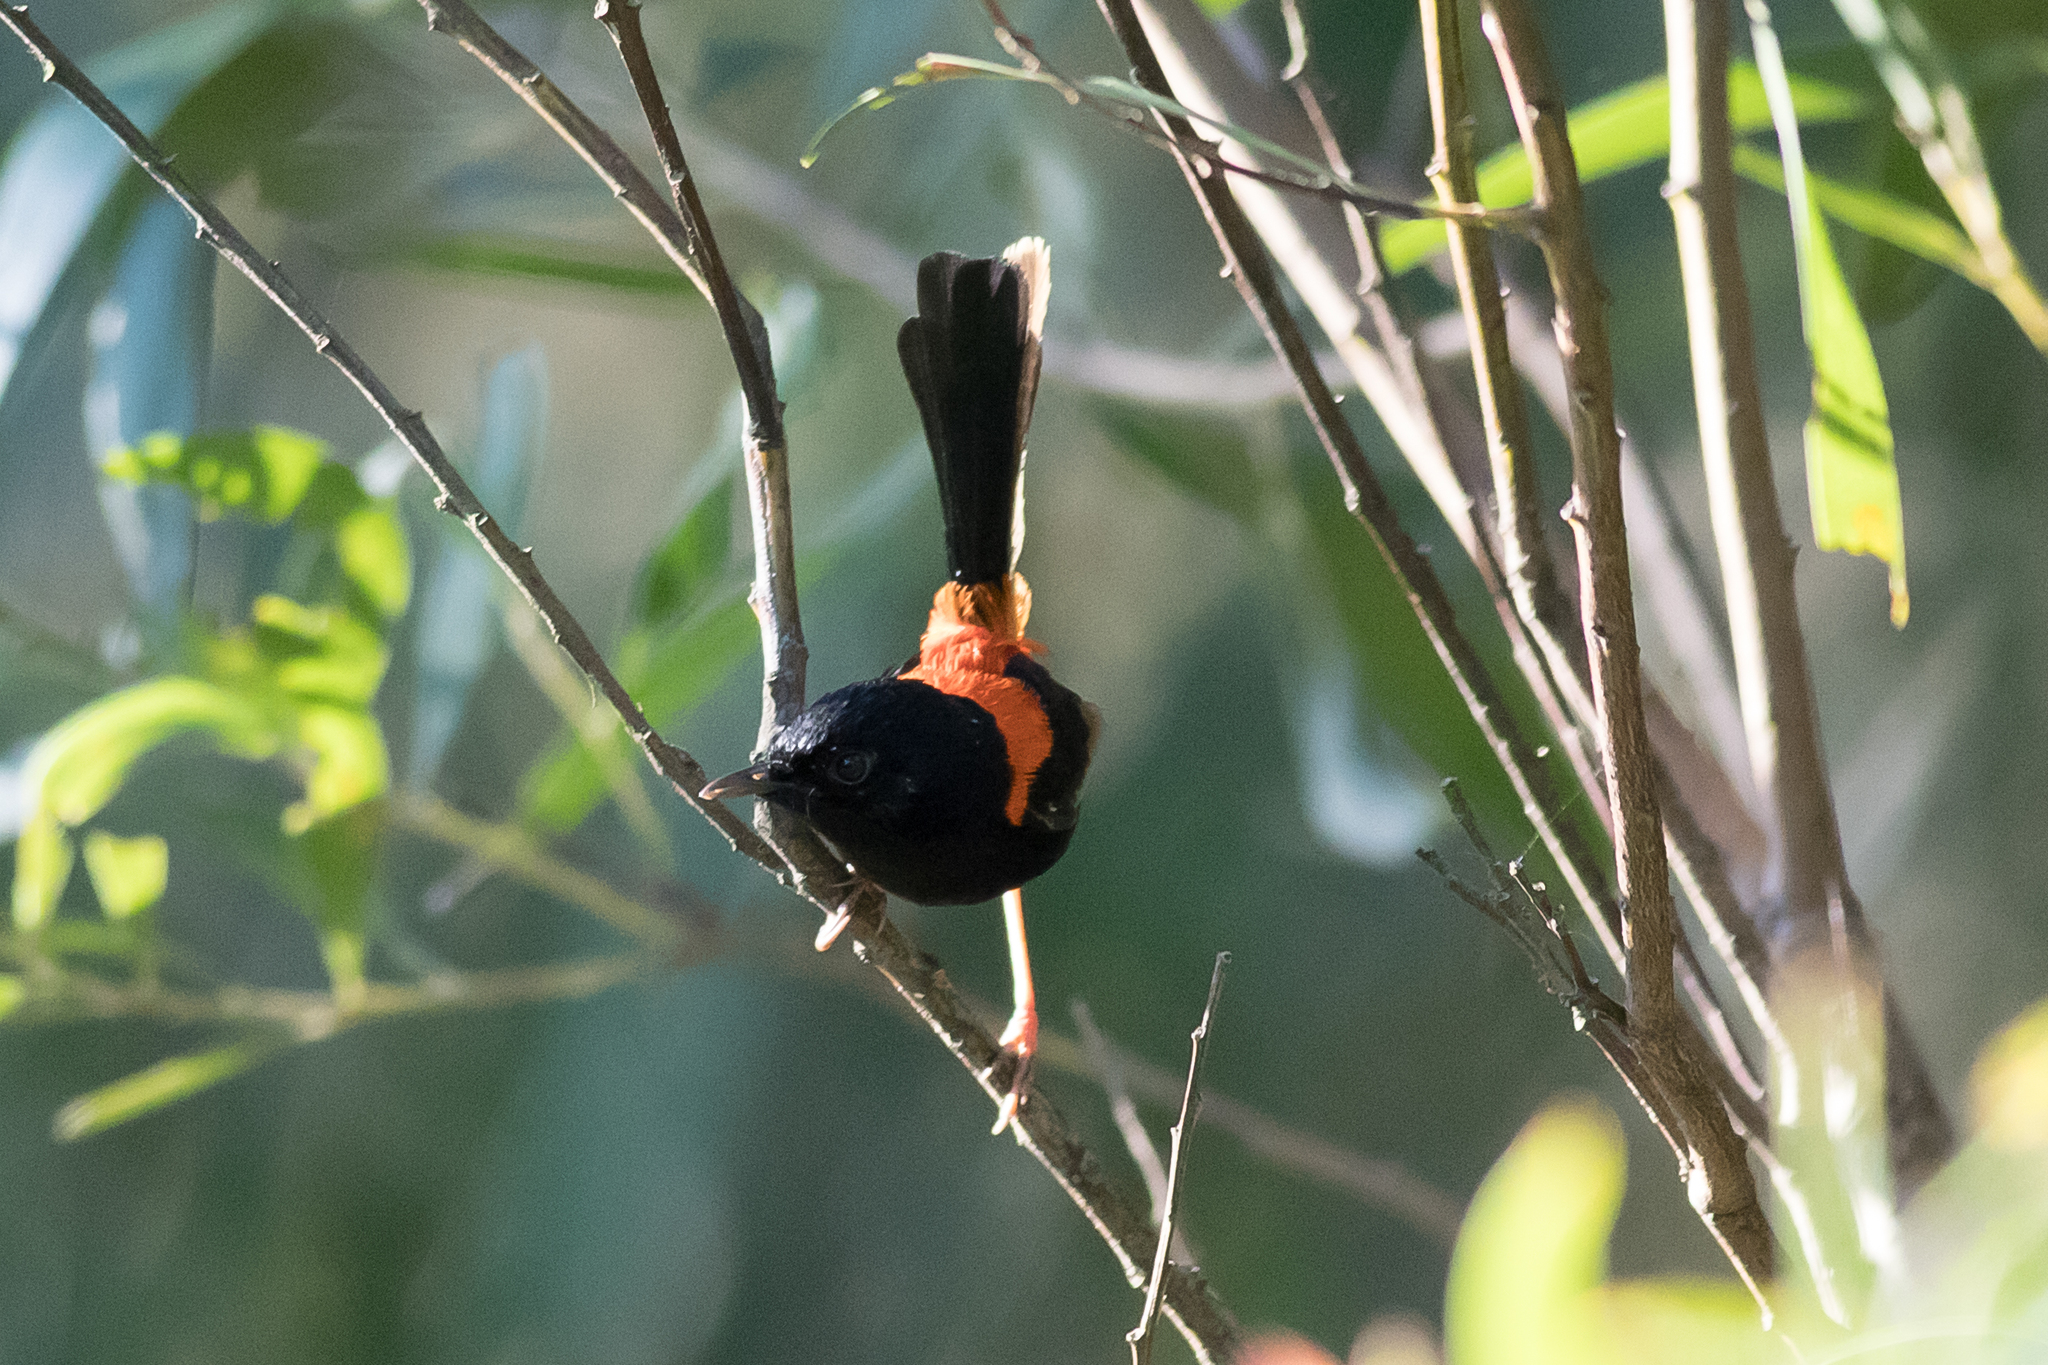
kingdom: Animalia
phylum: Chordata
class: Aves
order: Passeriformes
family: Maluridae
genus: Malurus
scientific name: Malurus melanocephalus
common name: Red-backed fairywren
